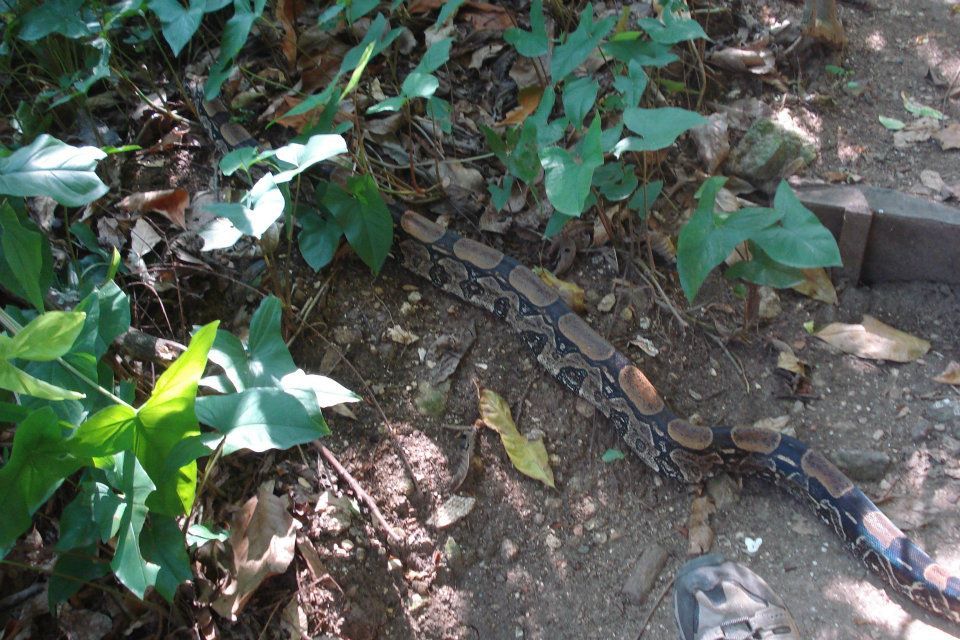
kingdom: Animalia
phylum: Chordata
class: Squamata
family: Boidae
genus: Boa
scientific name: Boa constrictor
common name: Boa constrictor
